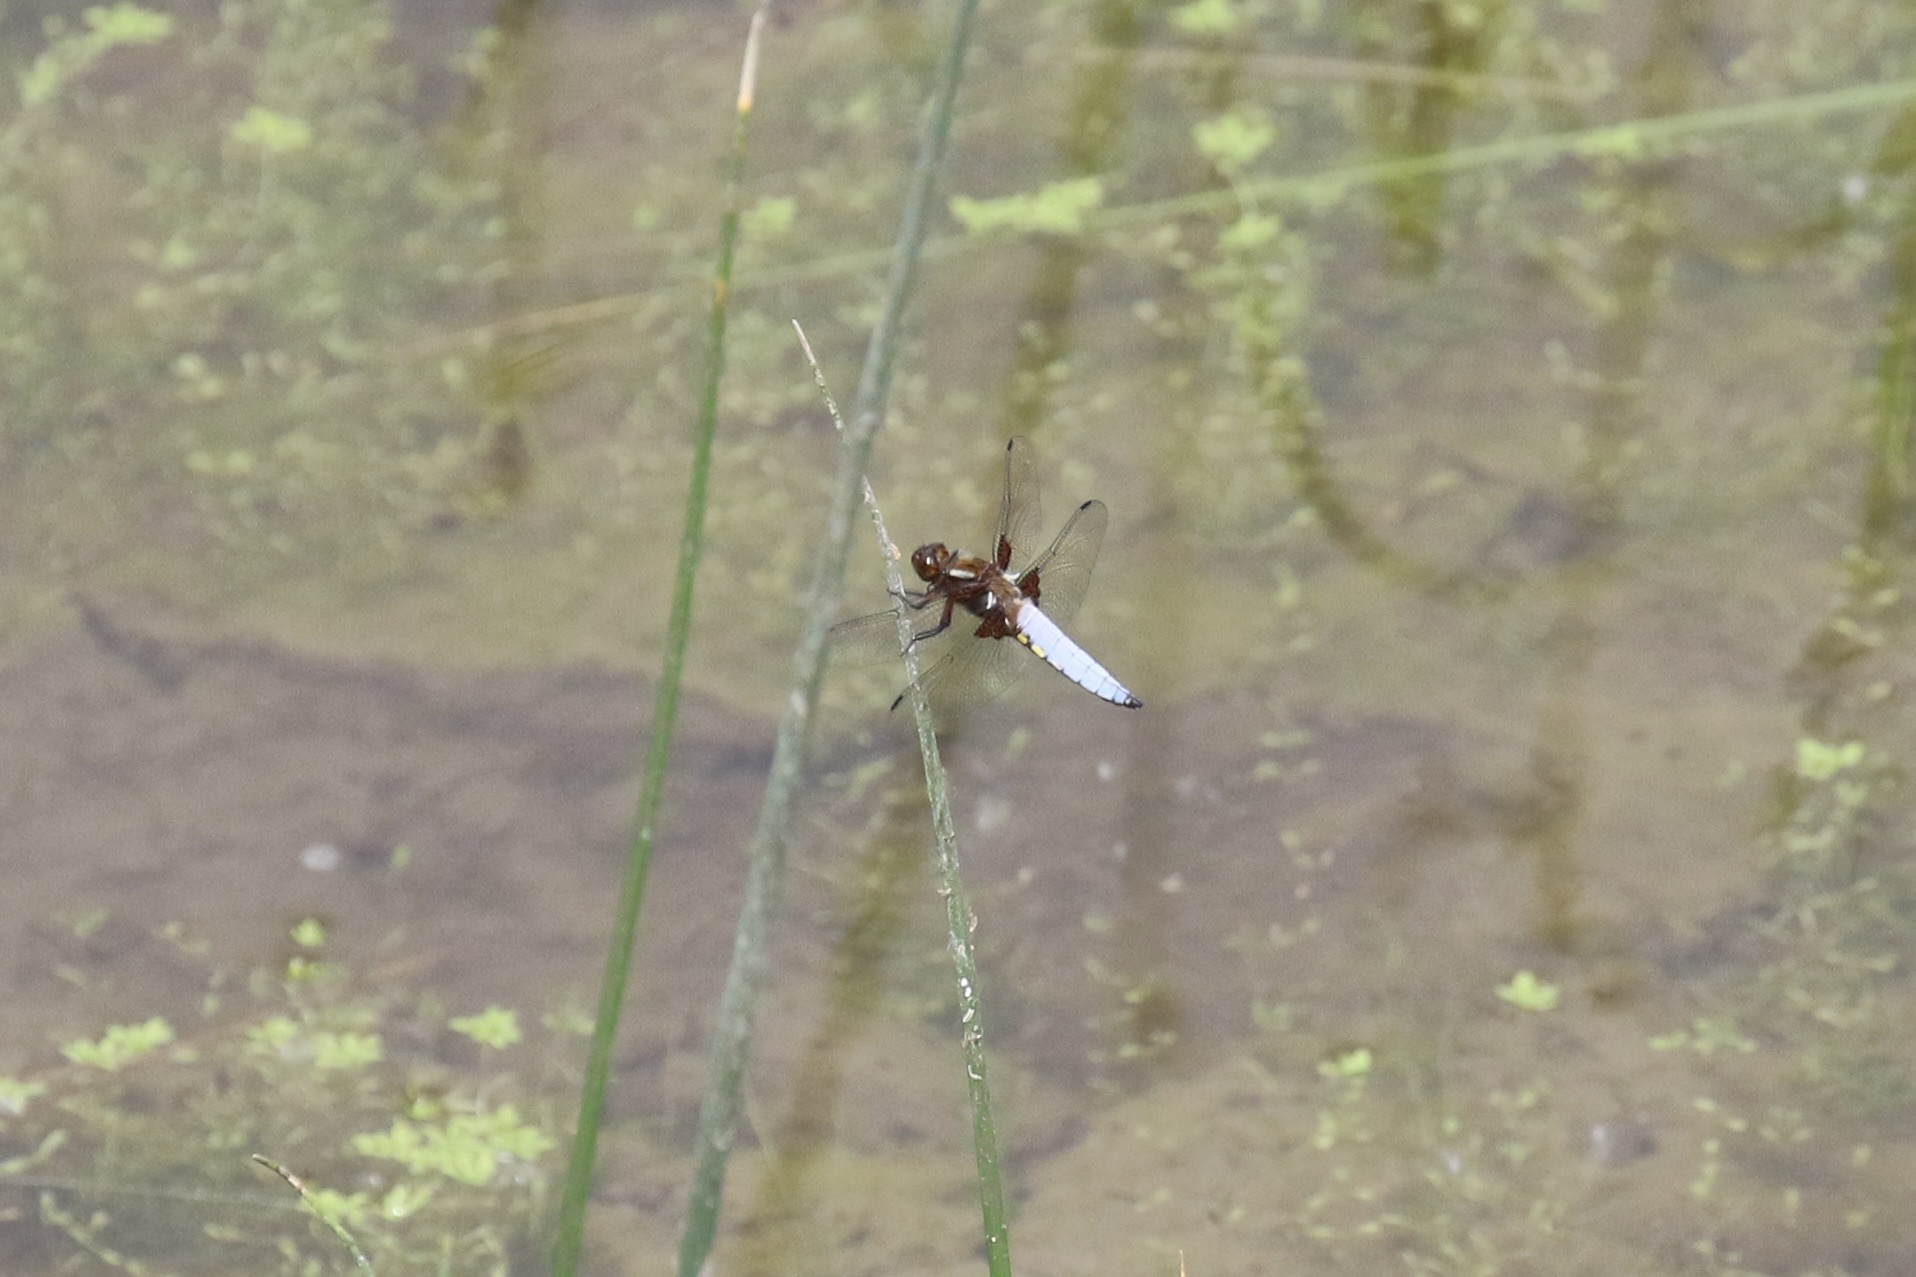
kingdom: Animalia
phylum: Arthropoda
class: Insecta
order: Odonata
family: Libellulidae
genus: Libellula
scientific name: Libellula depressa
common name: Broad-bodied chaser
